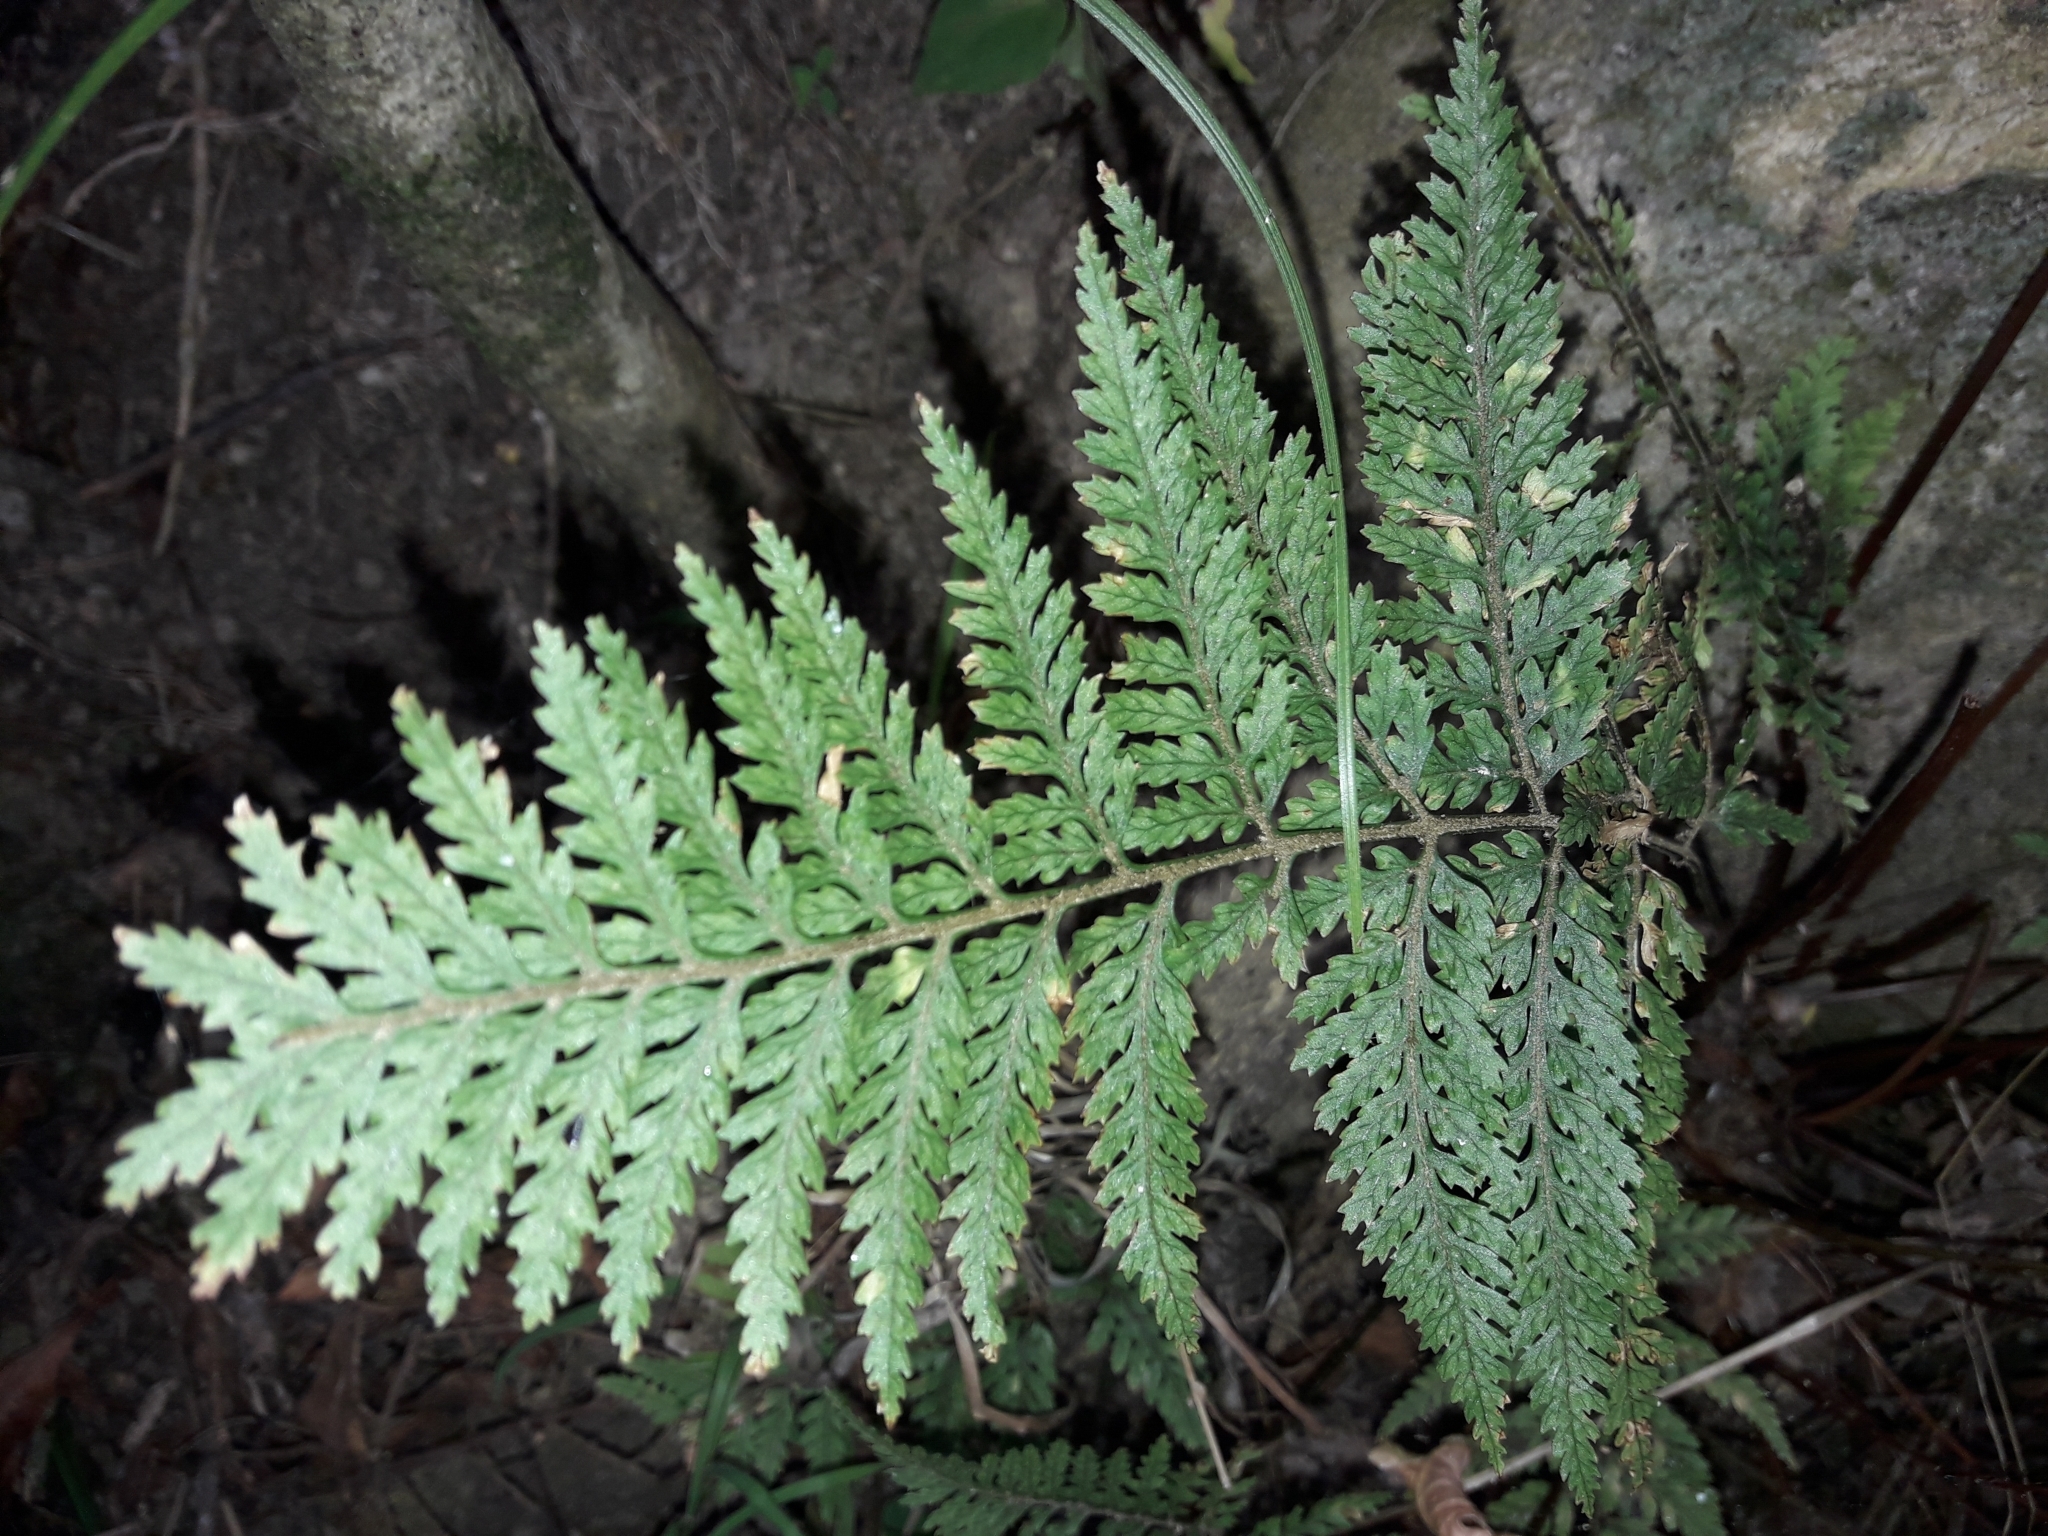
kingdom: Plantae
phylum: Tracheophyta
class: Polypodiopsida
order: Polypodiales
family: Dryopteridaceae
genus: Parapolystichum
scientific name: Parapolystichum glabellum
